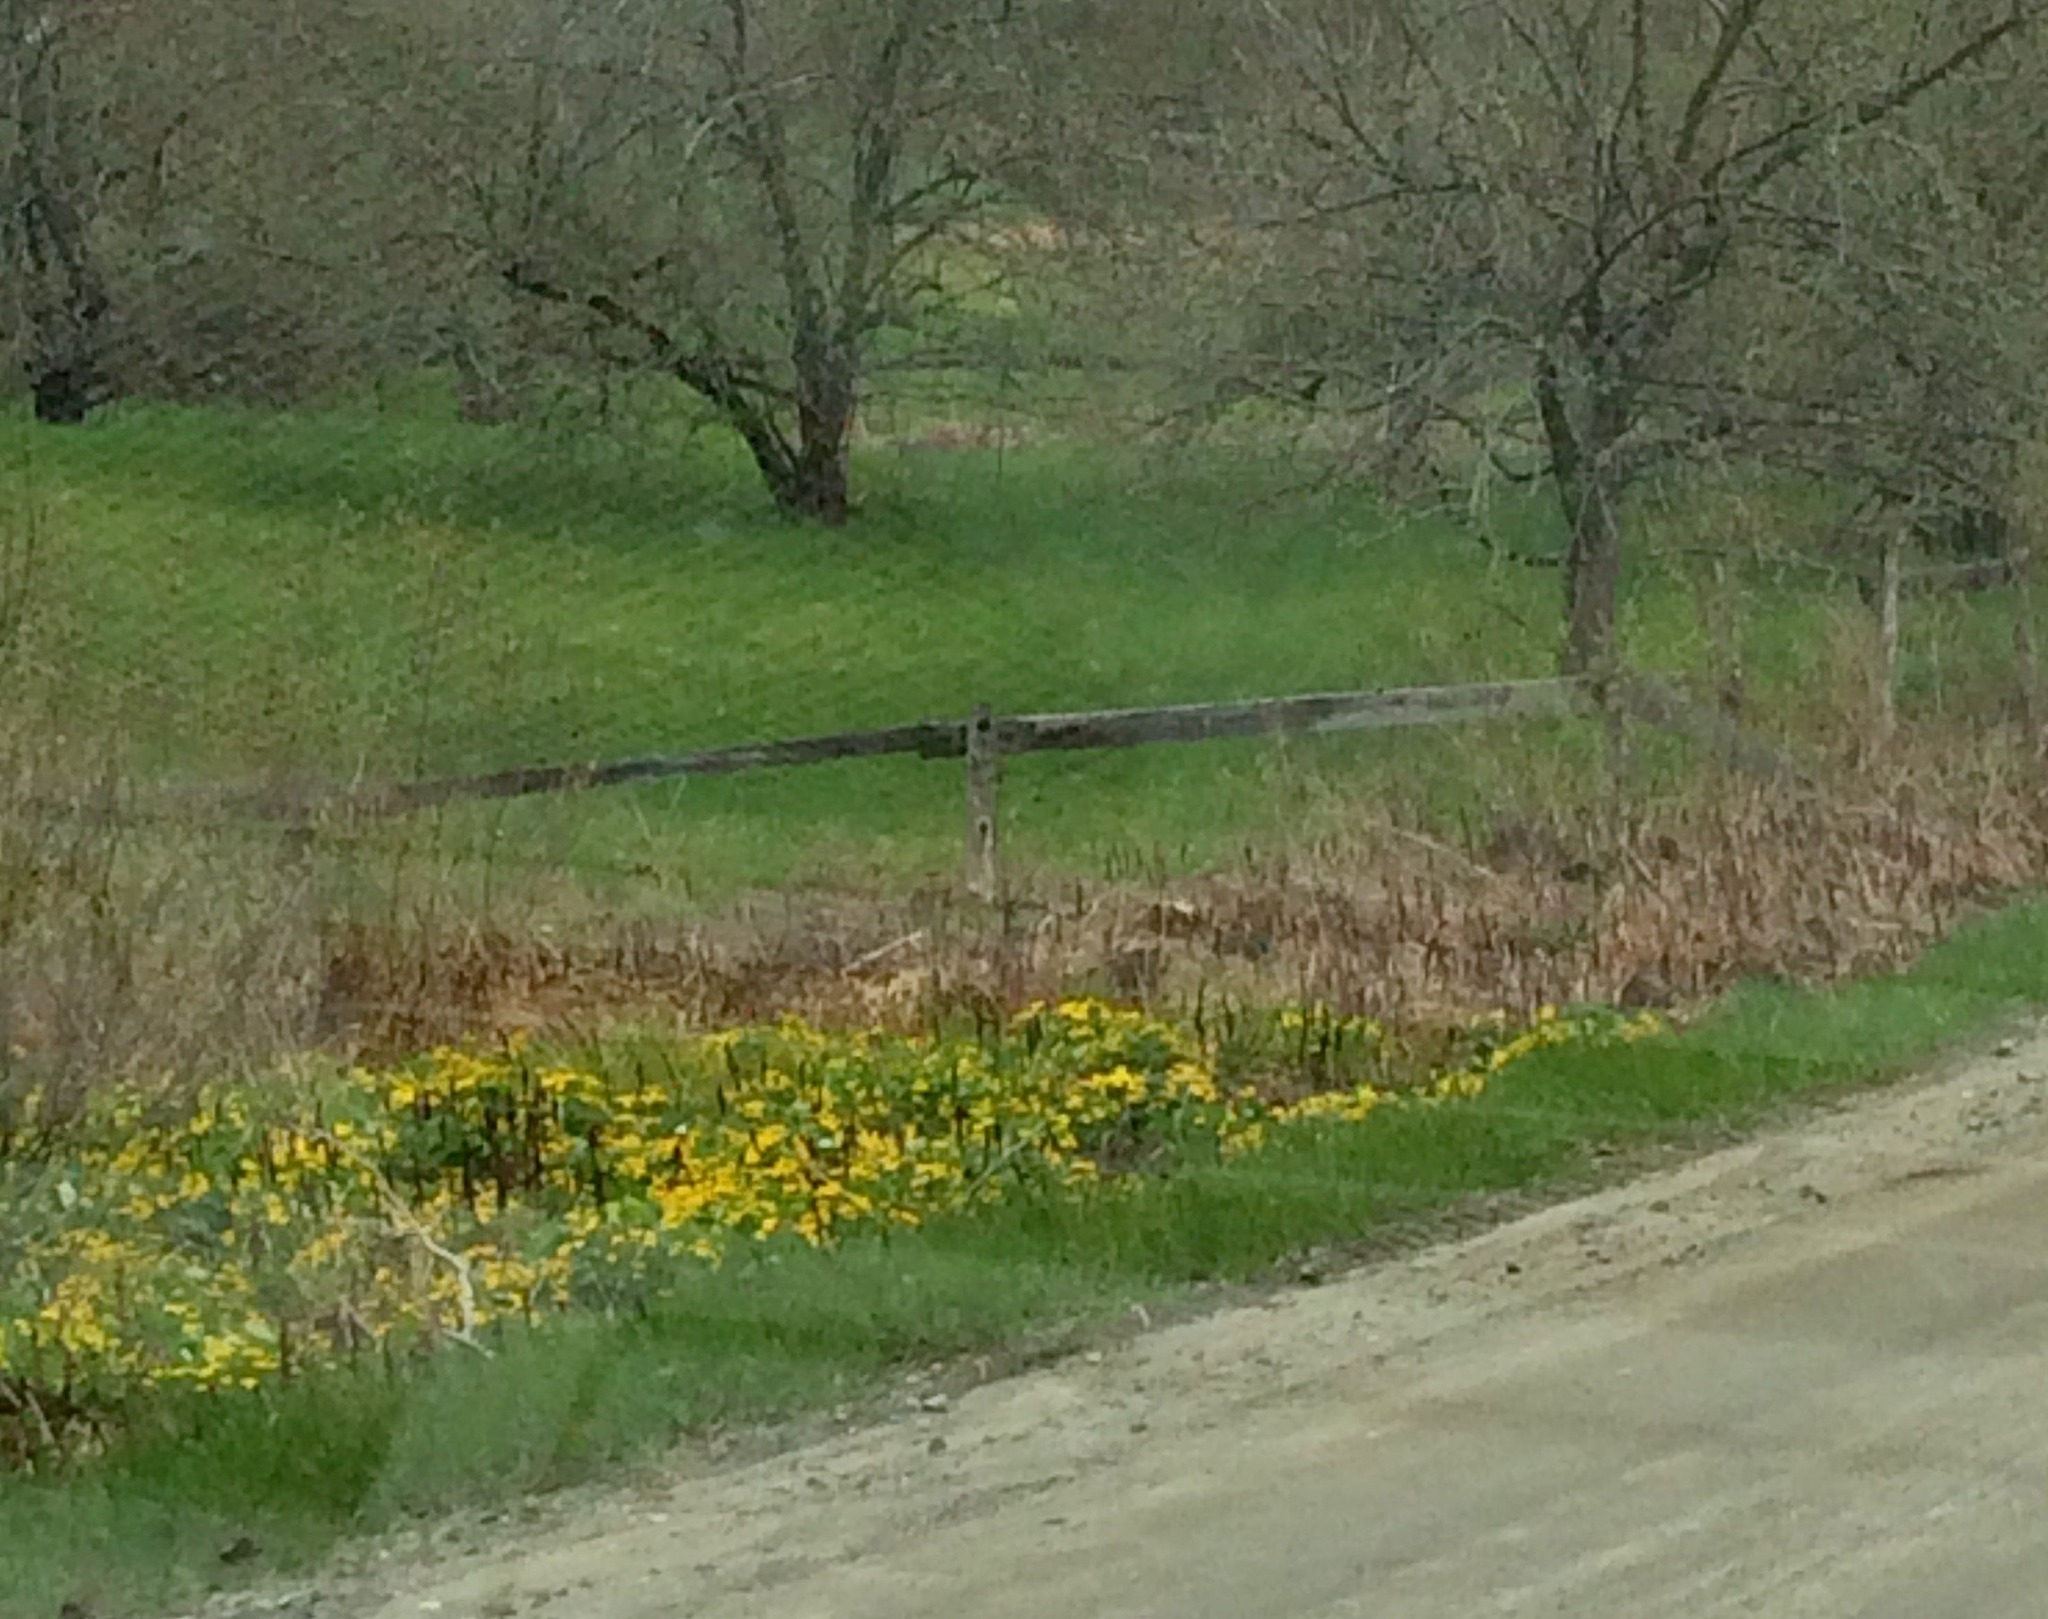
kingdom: Plantae
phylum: Tracheophyta
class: Magnoliopsida
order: Ranunculales
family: Ranunculaceae
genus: Caltha
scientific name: Caltha palustris
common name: Marsh marigold
